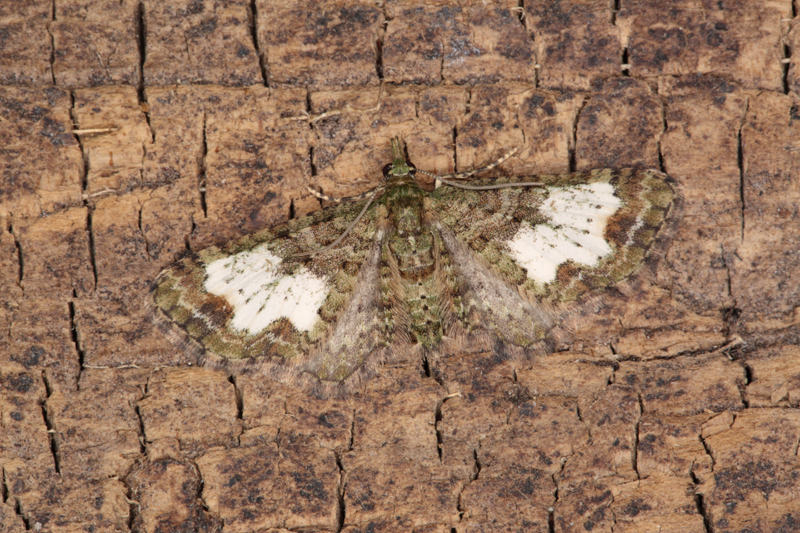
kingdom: Animalia
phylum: Arthropoda
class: Insecta
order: Lepidoptera
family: Geometridae
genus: Idaea
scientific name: Idaea mutanda
